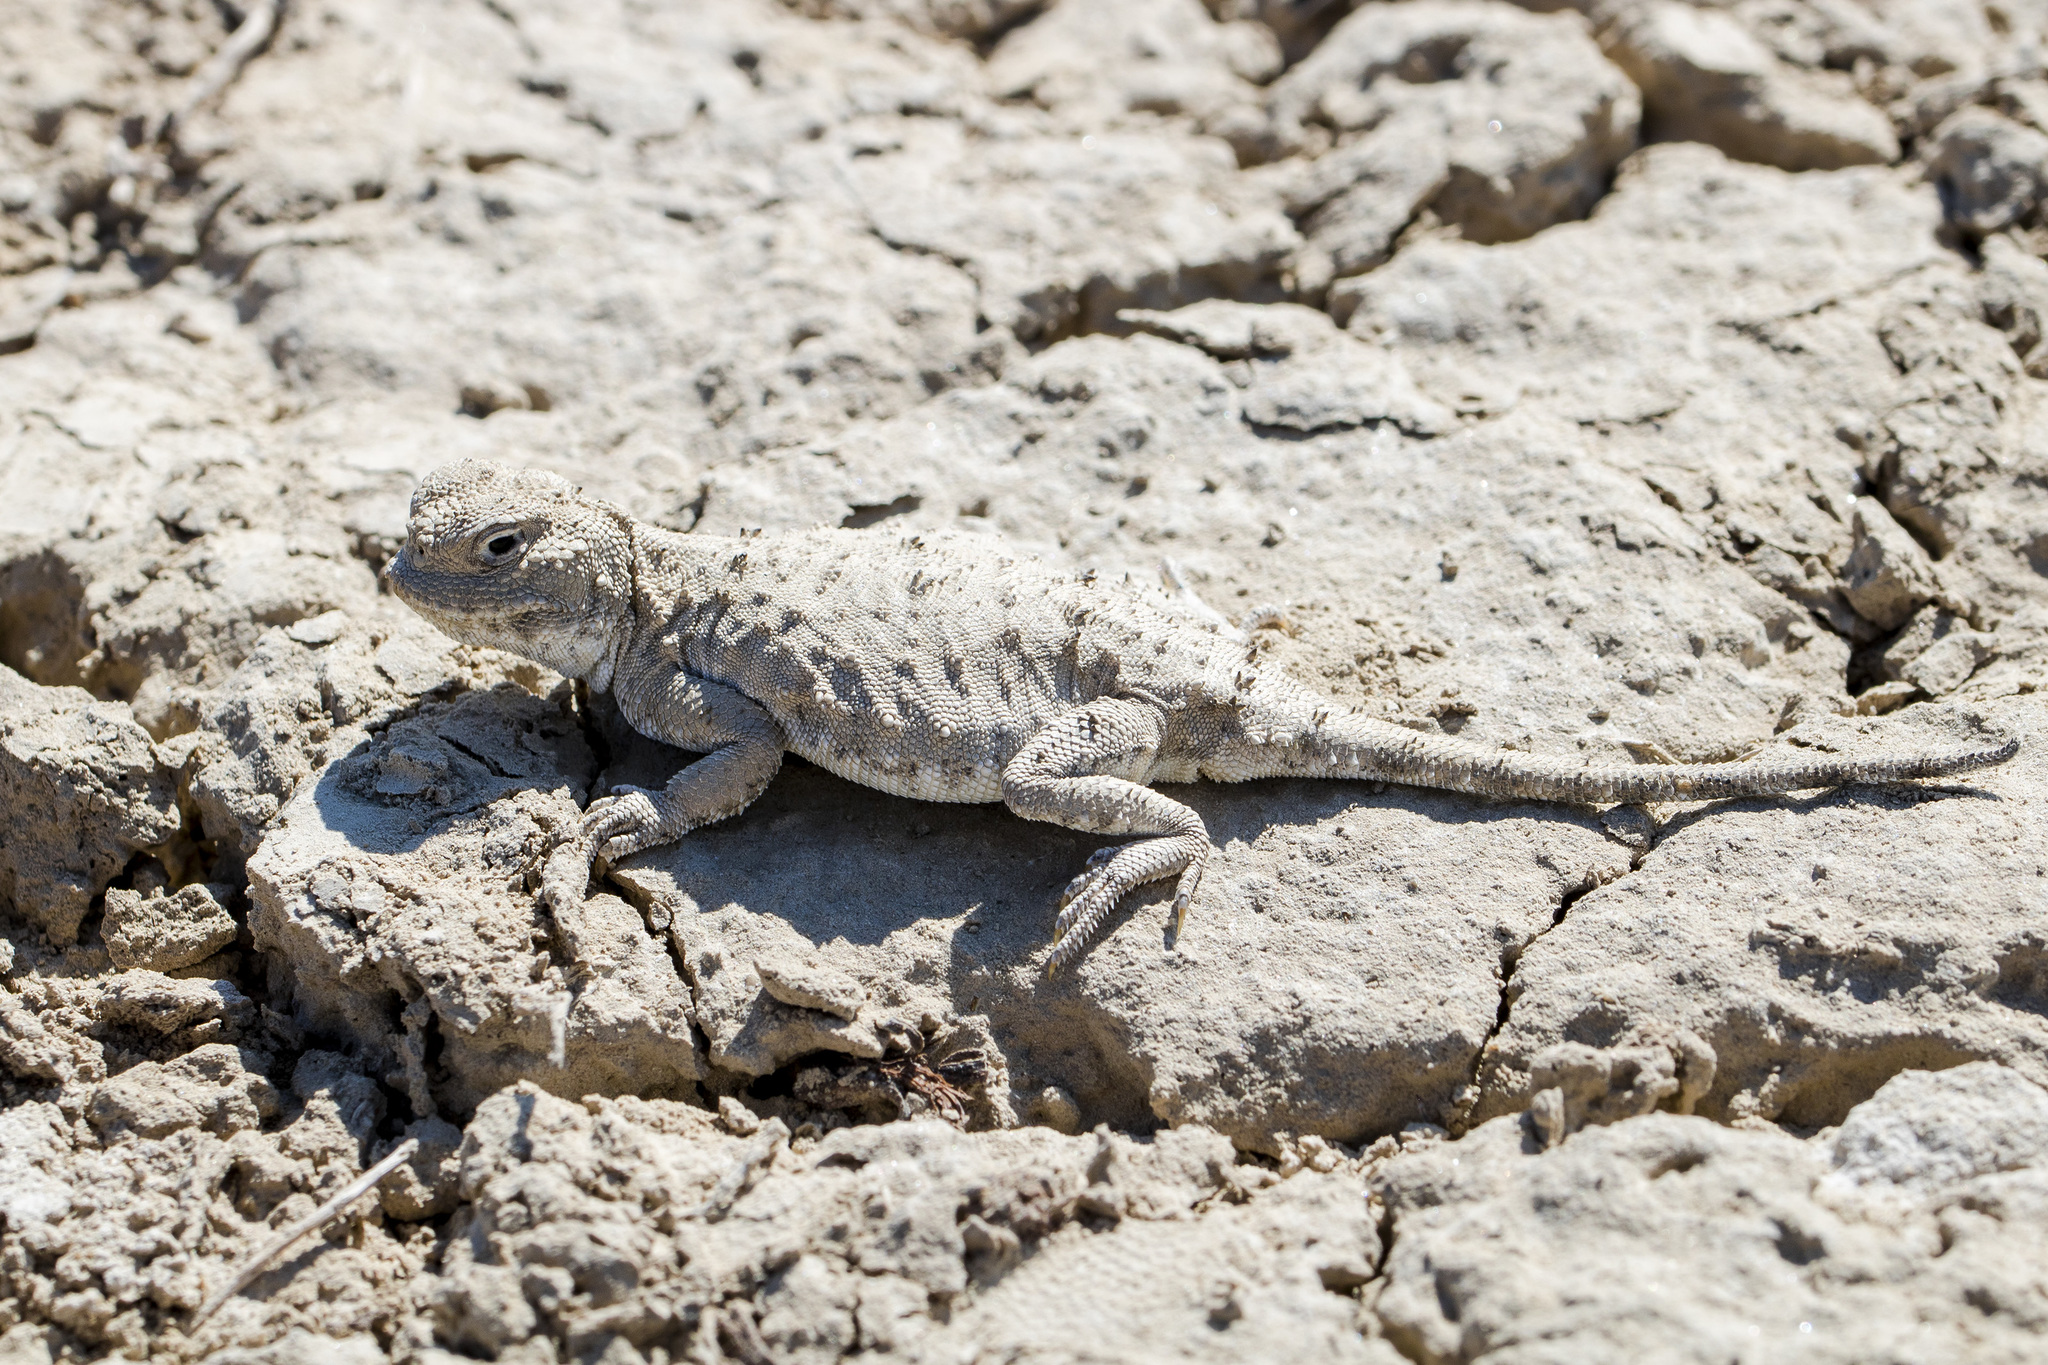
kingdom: Animalia
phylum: Chordata
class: Squamata
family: Agamidae
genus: Phrynocephalus
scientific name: Phrynocephalus helioscopus
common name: Sunwatcher
